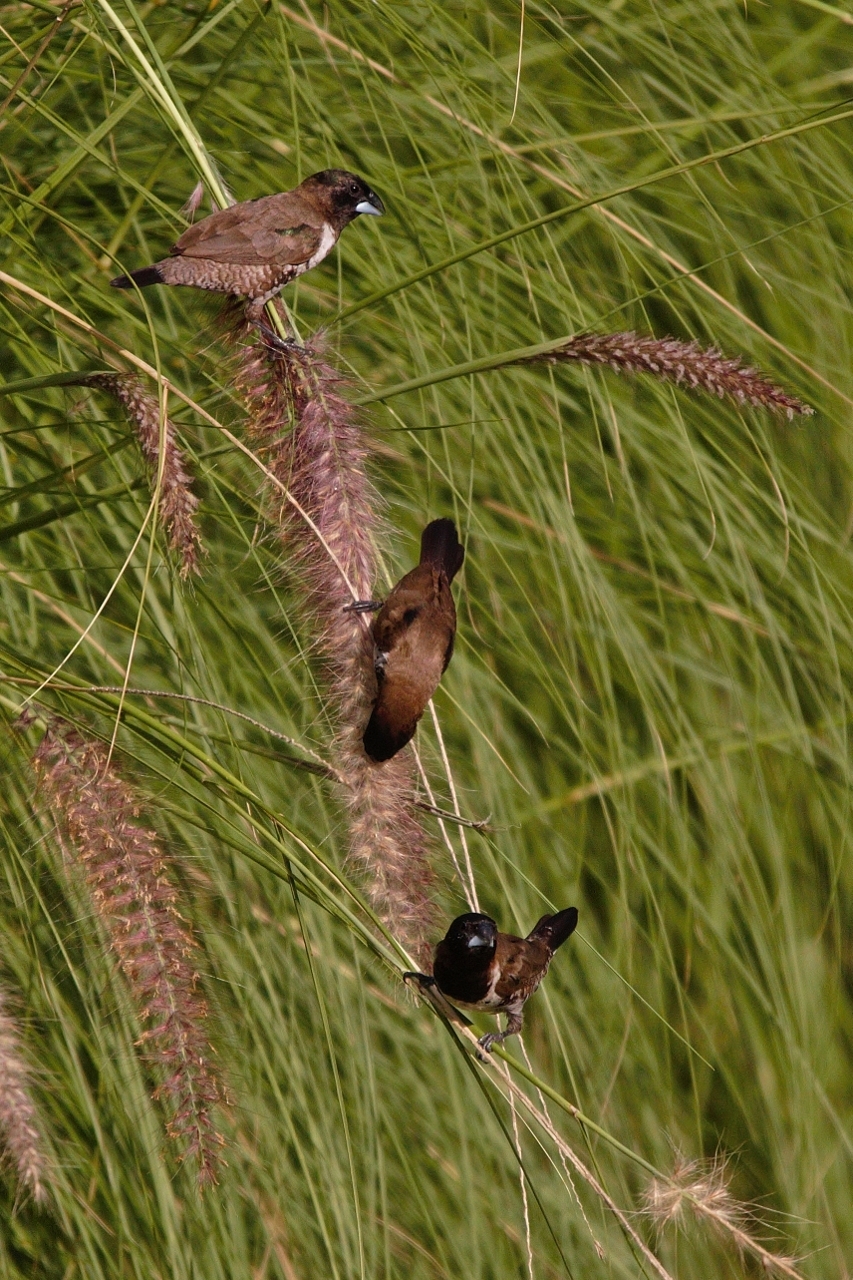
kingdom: Animalia
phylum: Chordata
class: Aves
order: Passeriformes
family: Estrildidae
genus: Lonchura
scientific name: Lonchura cucullata
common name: Bronze mannikin
